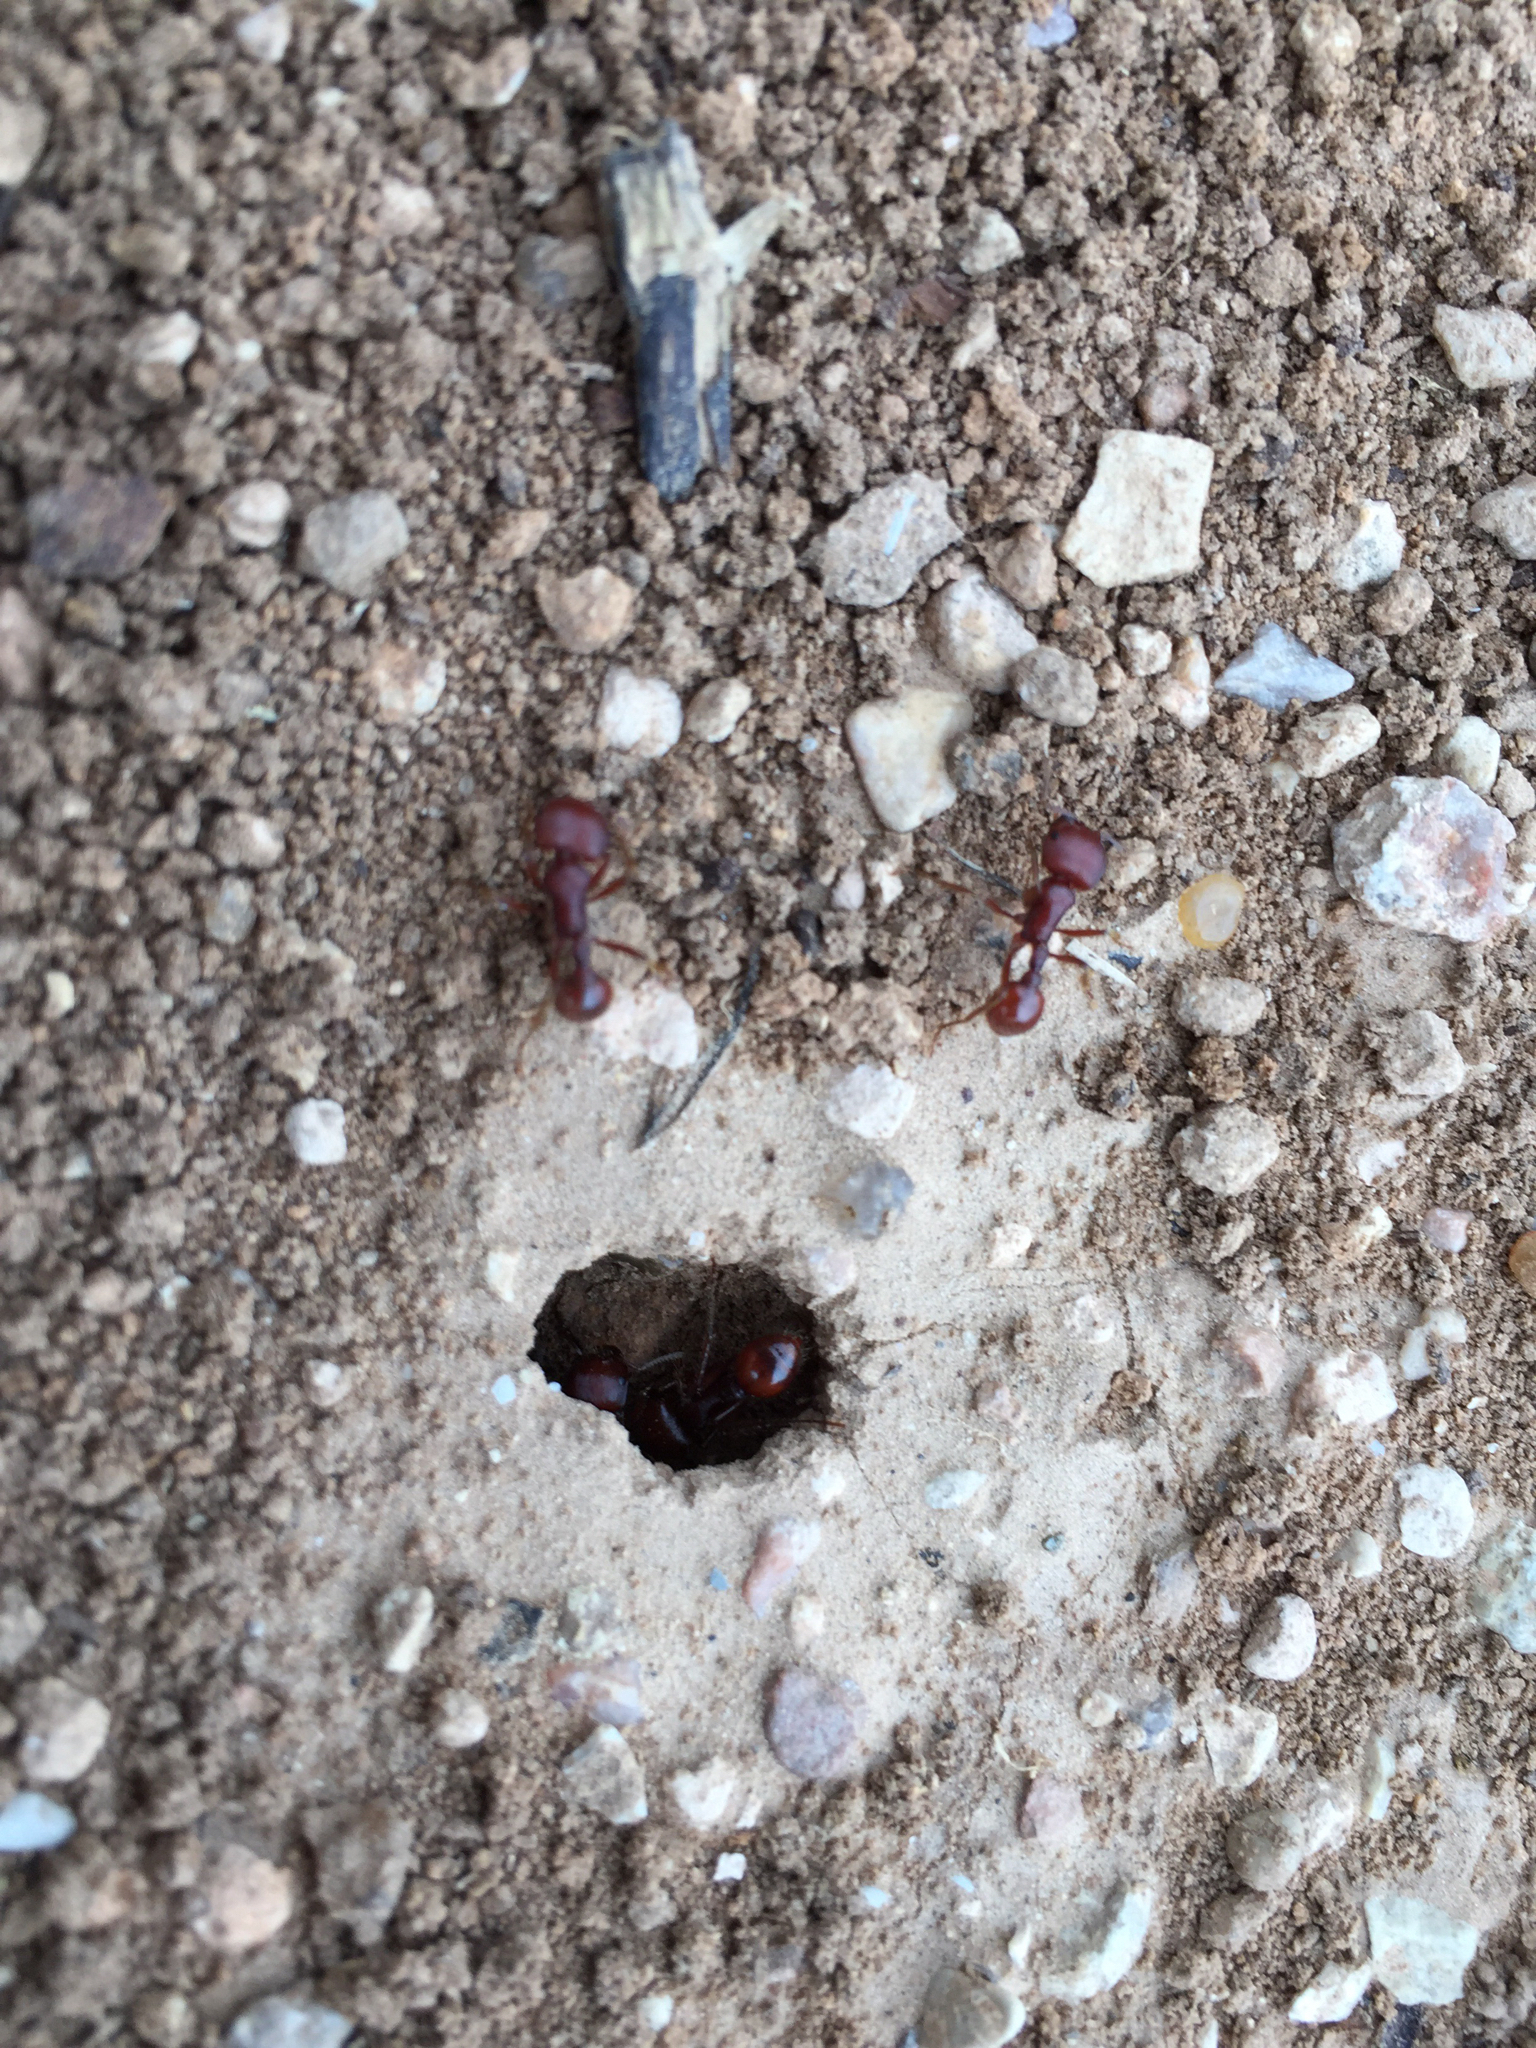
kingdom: Animalia
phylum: Arthropoda
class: Insecta
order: Hymenoptera
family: Formicidae
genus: Pogonomyrmex
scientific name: Pogonomyrmex barbatus
